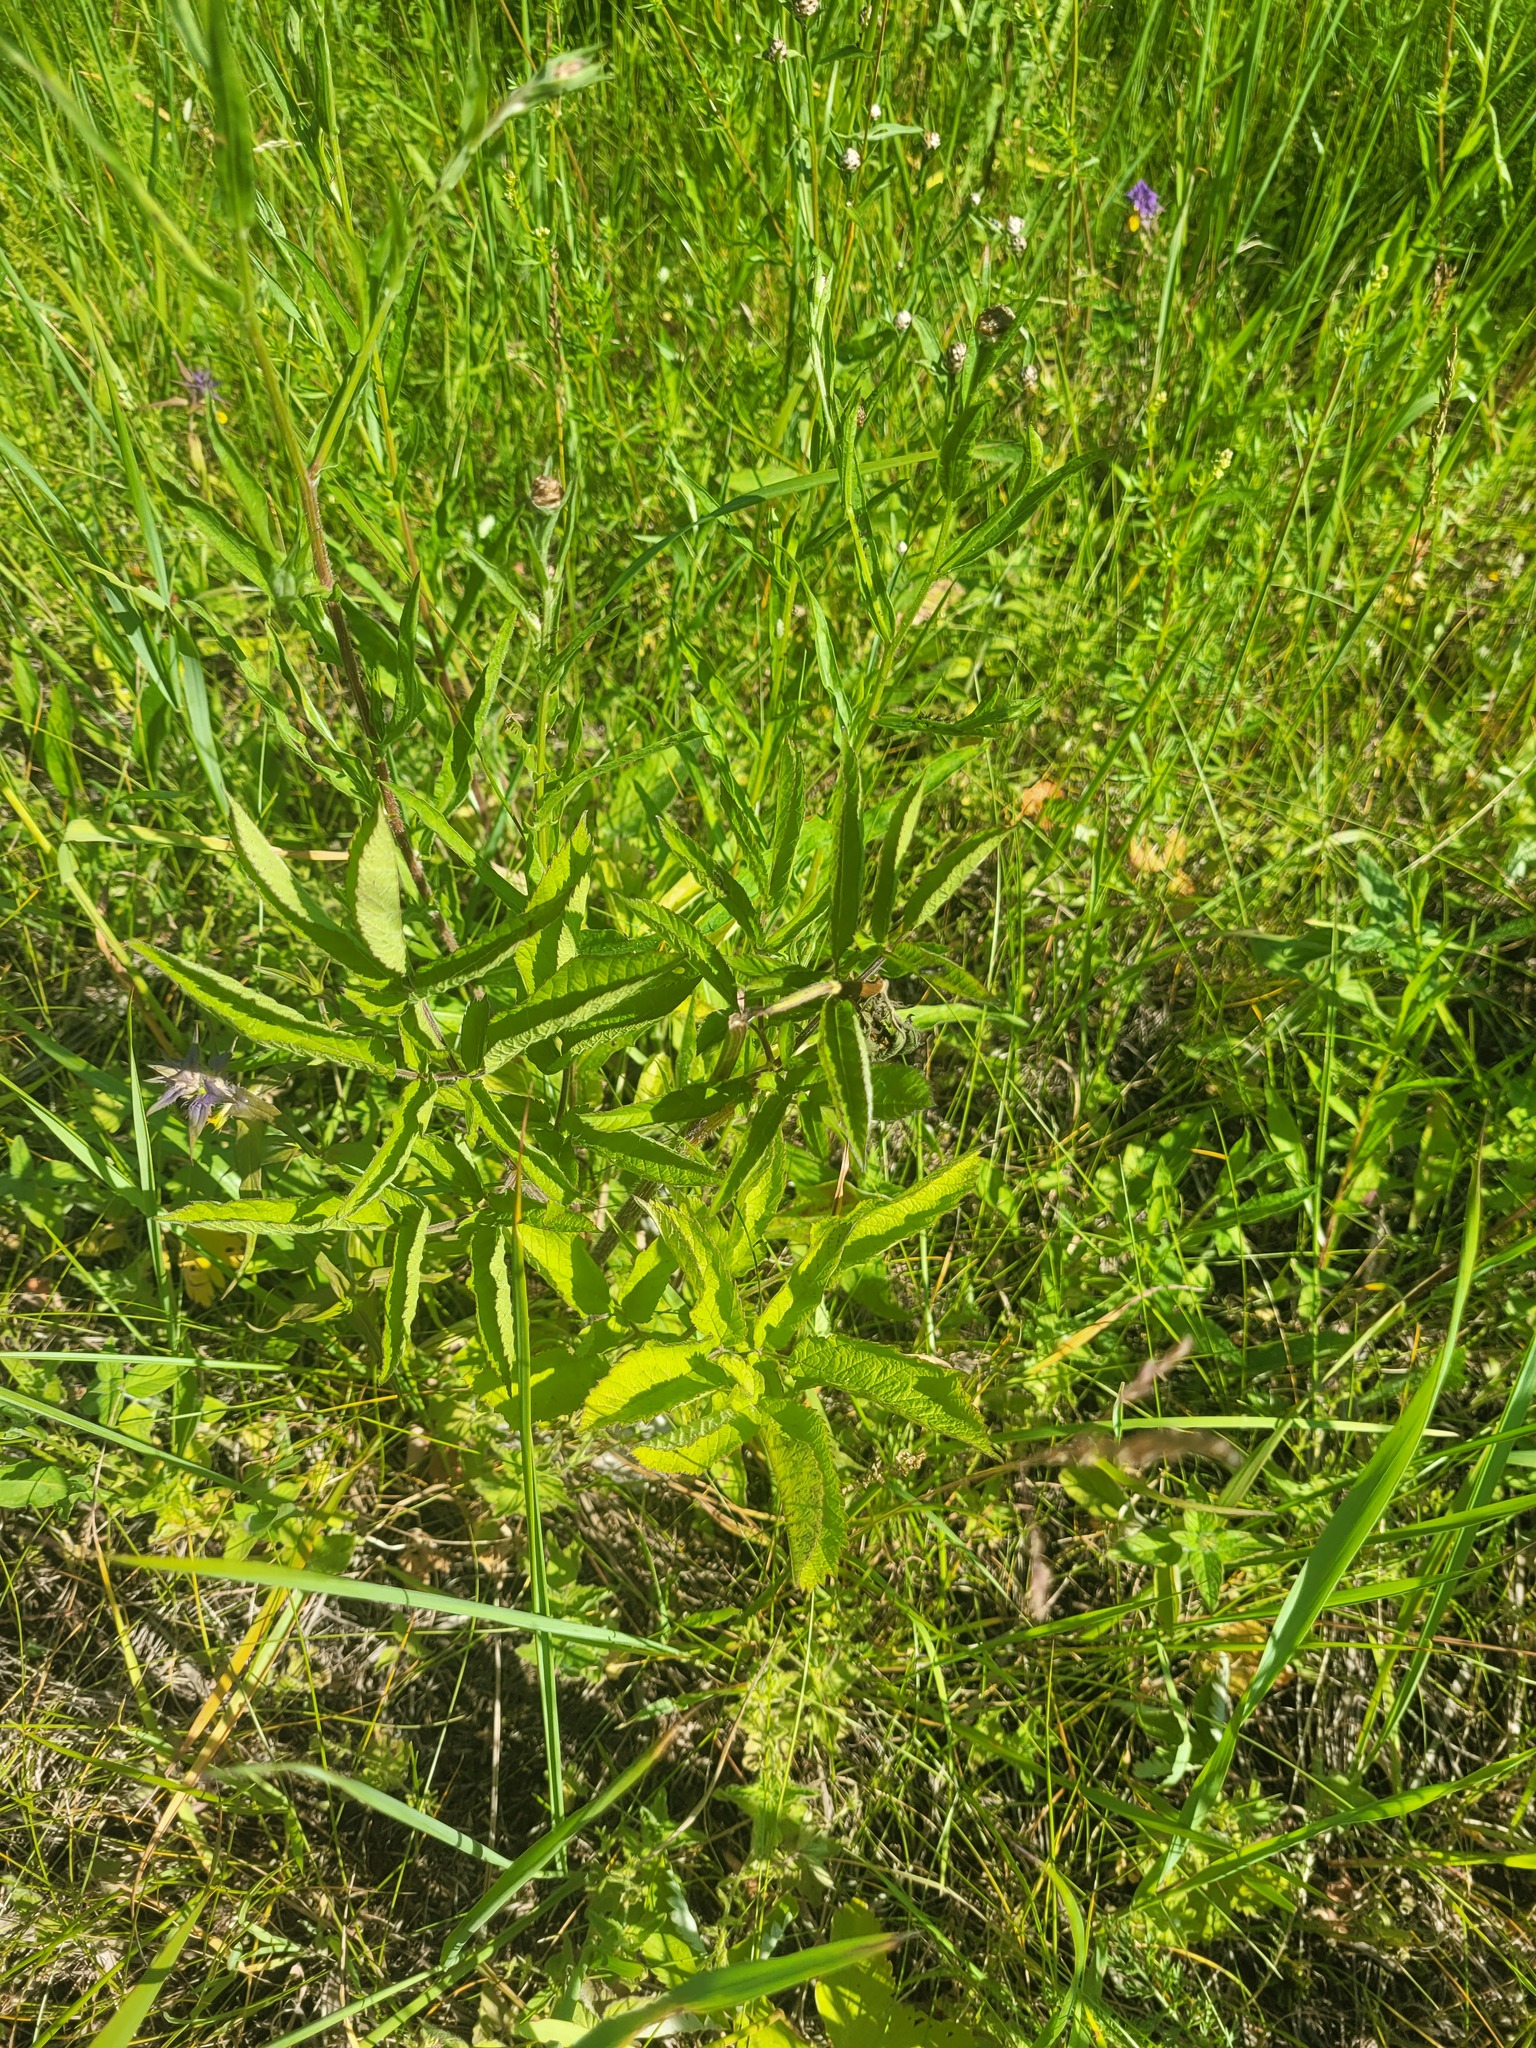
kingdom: Plantae
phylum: Tracheophyta
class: Magnoliopsida
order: Apiales
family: Apiaceae
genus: Chaerophyllum
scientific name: Chaerophyllum aromaticum
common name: Broadleaf chervil
